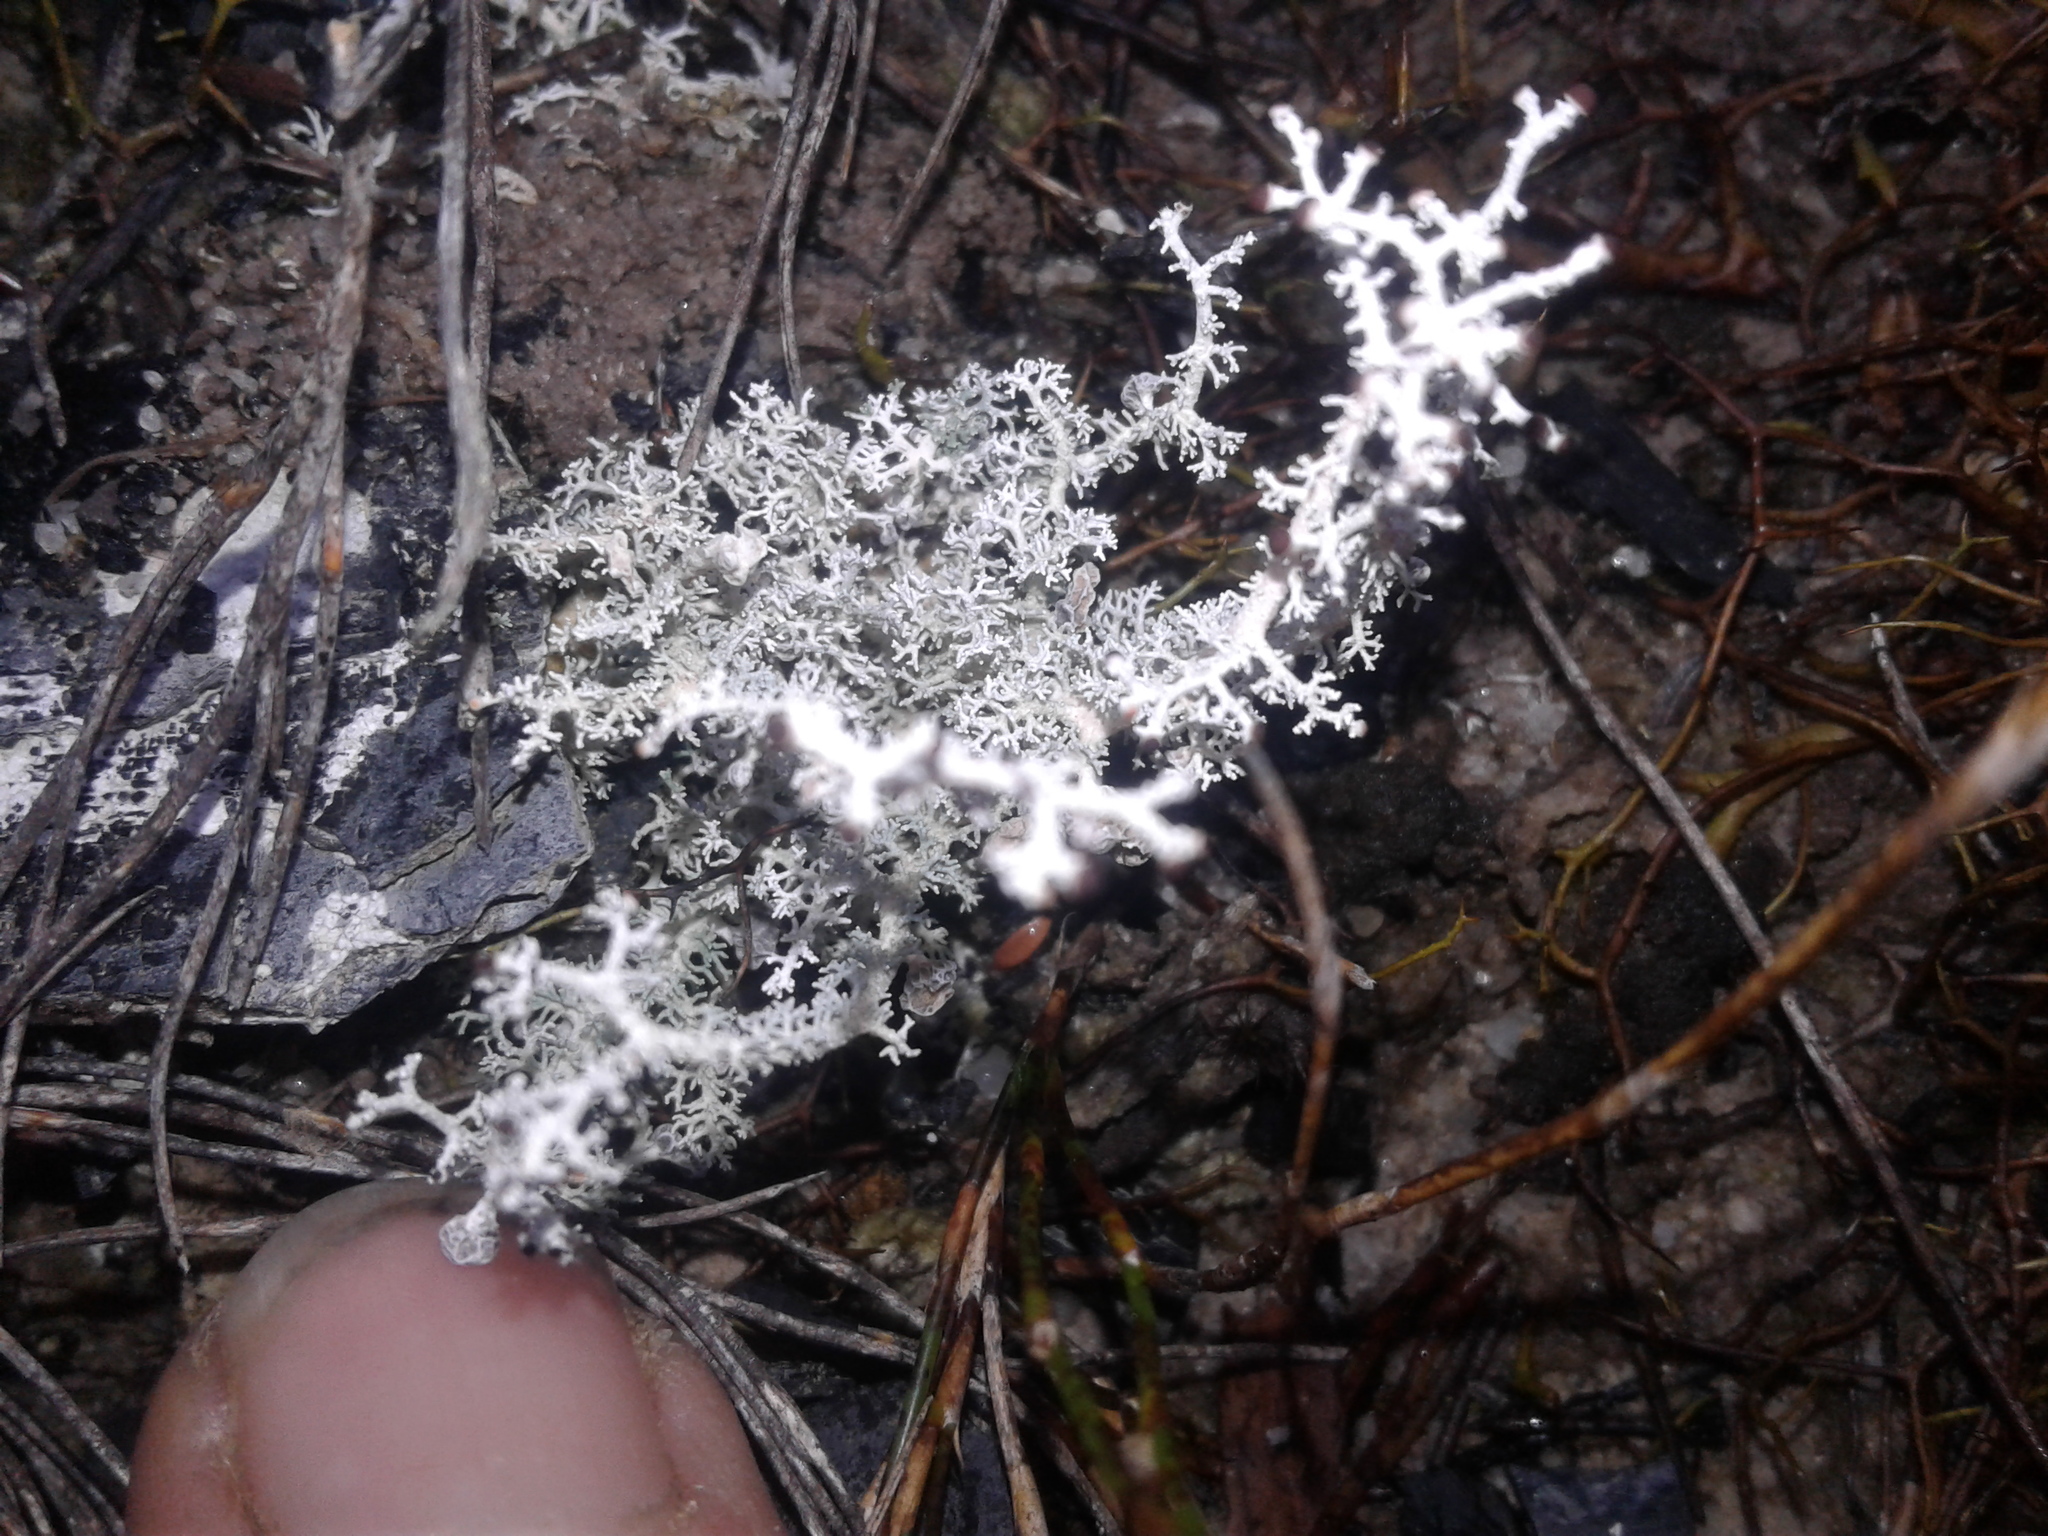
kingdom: Fungi
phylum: Ascomycota
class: Lecanoromycetes
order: Lecanorales
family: Stereocaulaceae
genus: Stereocaulon
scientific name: Stereocaulon ramulosum
